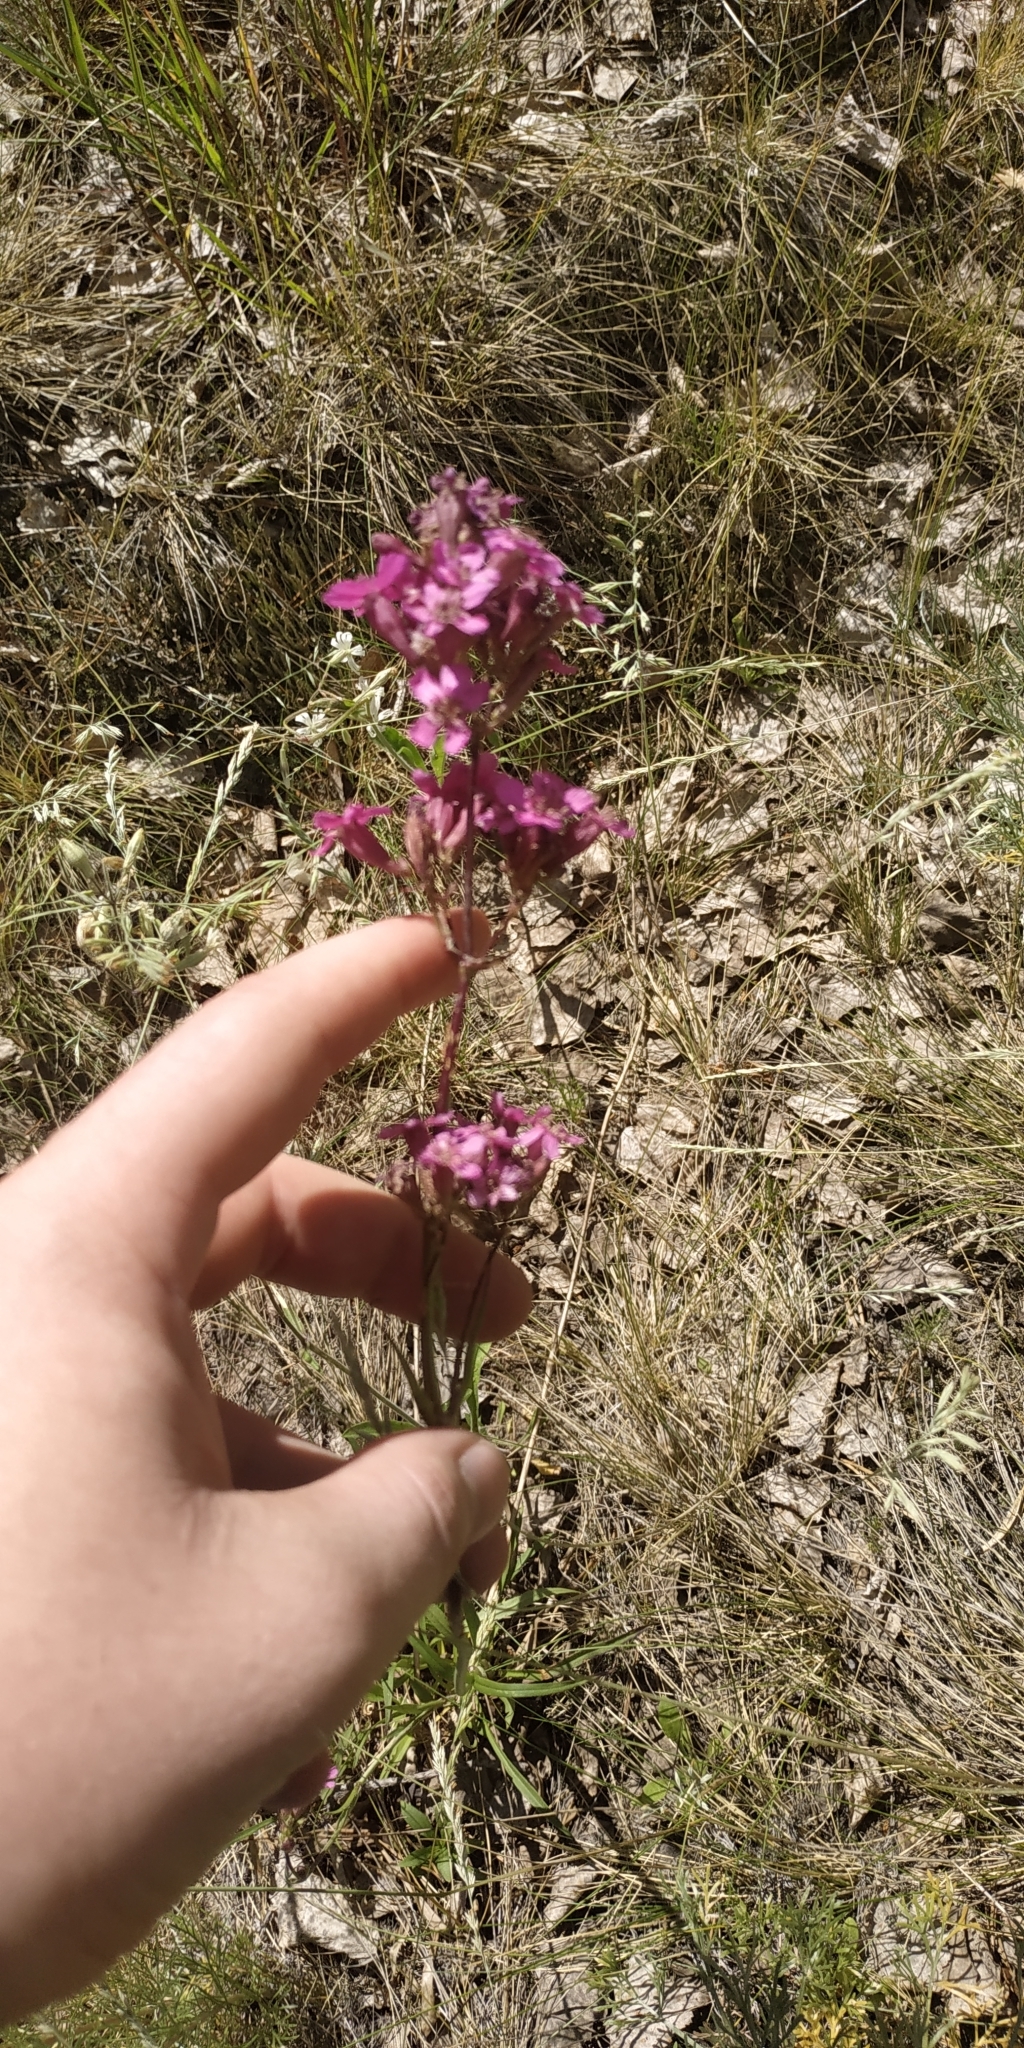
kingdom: Plantae
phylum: Tracheophyta
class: Magnoliopsida
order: Caryophyllales
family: Caryophyllaceae
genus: Viscaria
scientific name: Viscaria vulgaris
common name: Clammy campion
